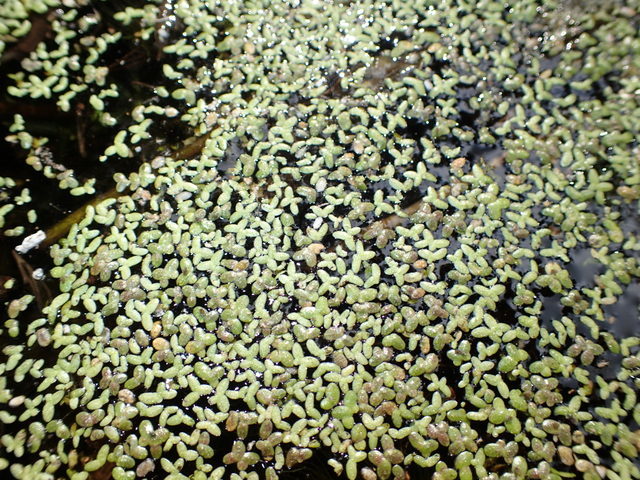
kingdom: Plantae
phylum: Tracheophyta
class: Liliopsida
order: Alismatales
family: Araceae
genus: Lemna
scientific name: Lemna minor
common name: Common duckweed
